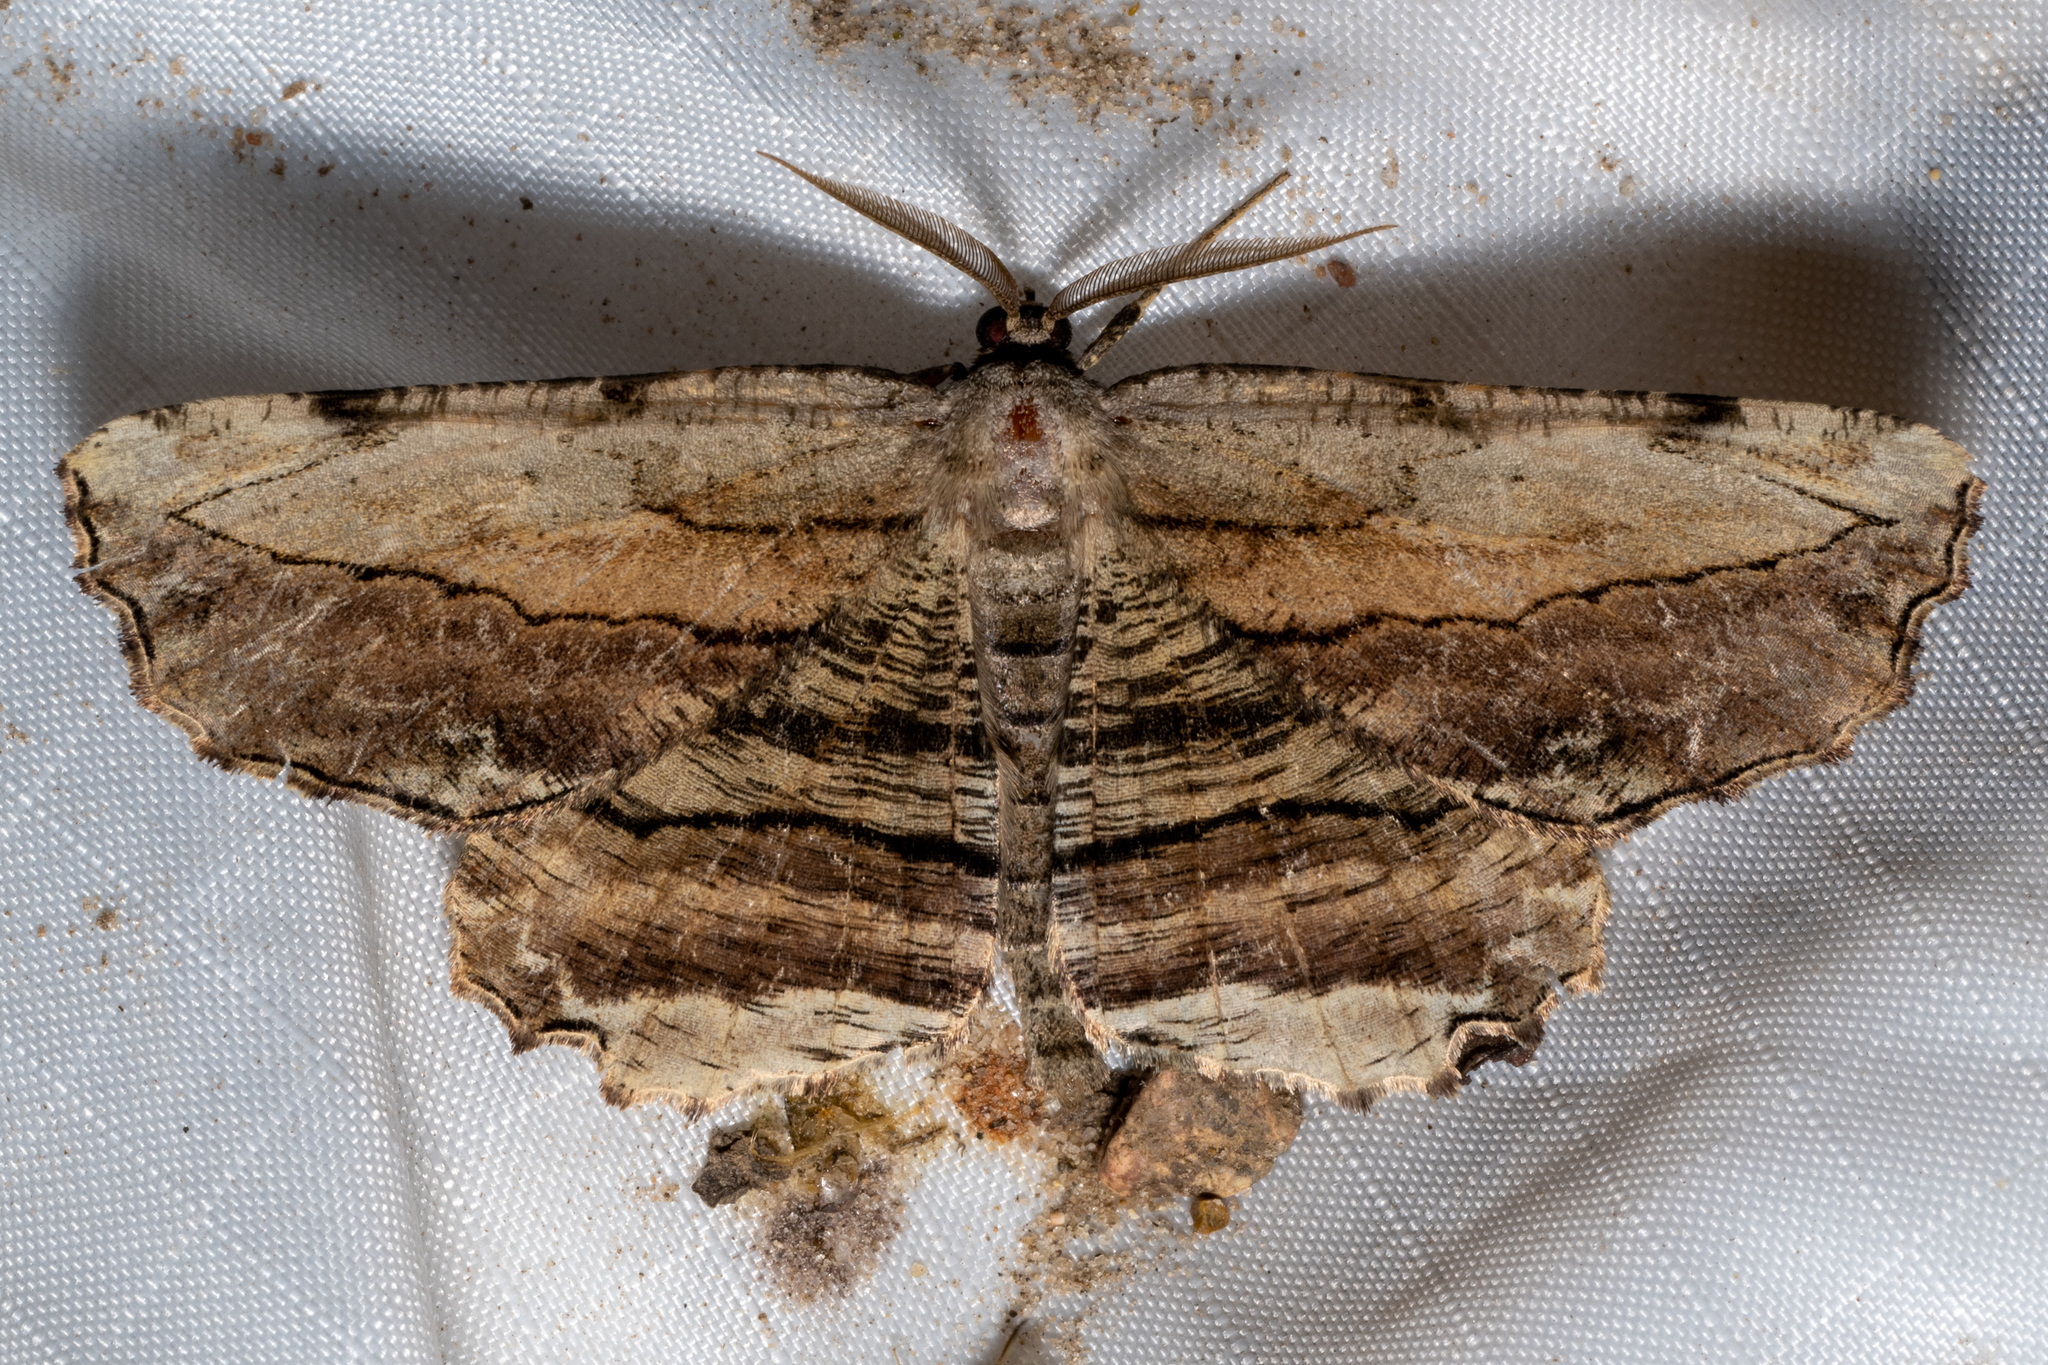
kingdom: Animalia
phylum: Arthropoda
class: Insecta
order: Lepidoptera
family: Geometridae
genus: Lytrosis
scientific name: Lytrosis unitaria
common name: Common lytrosis
